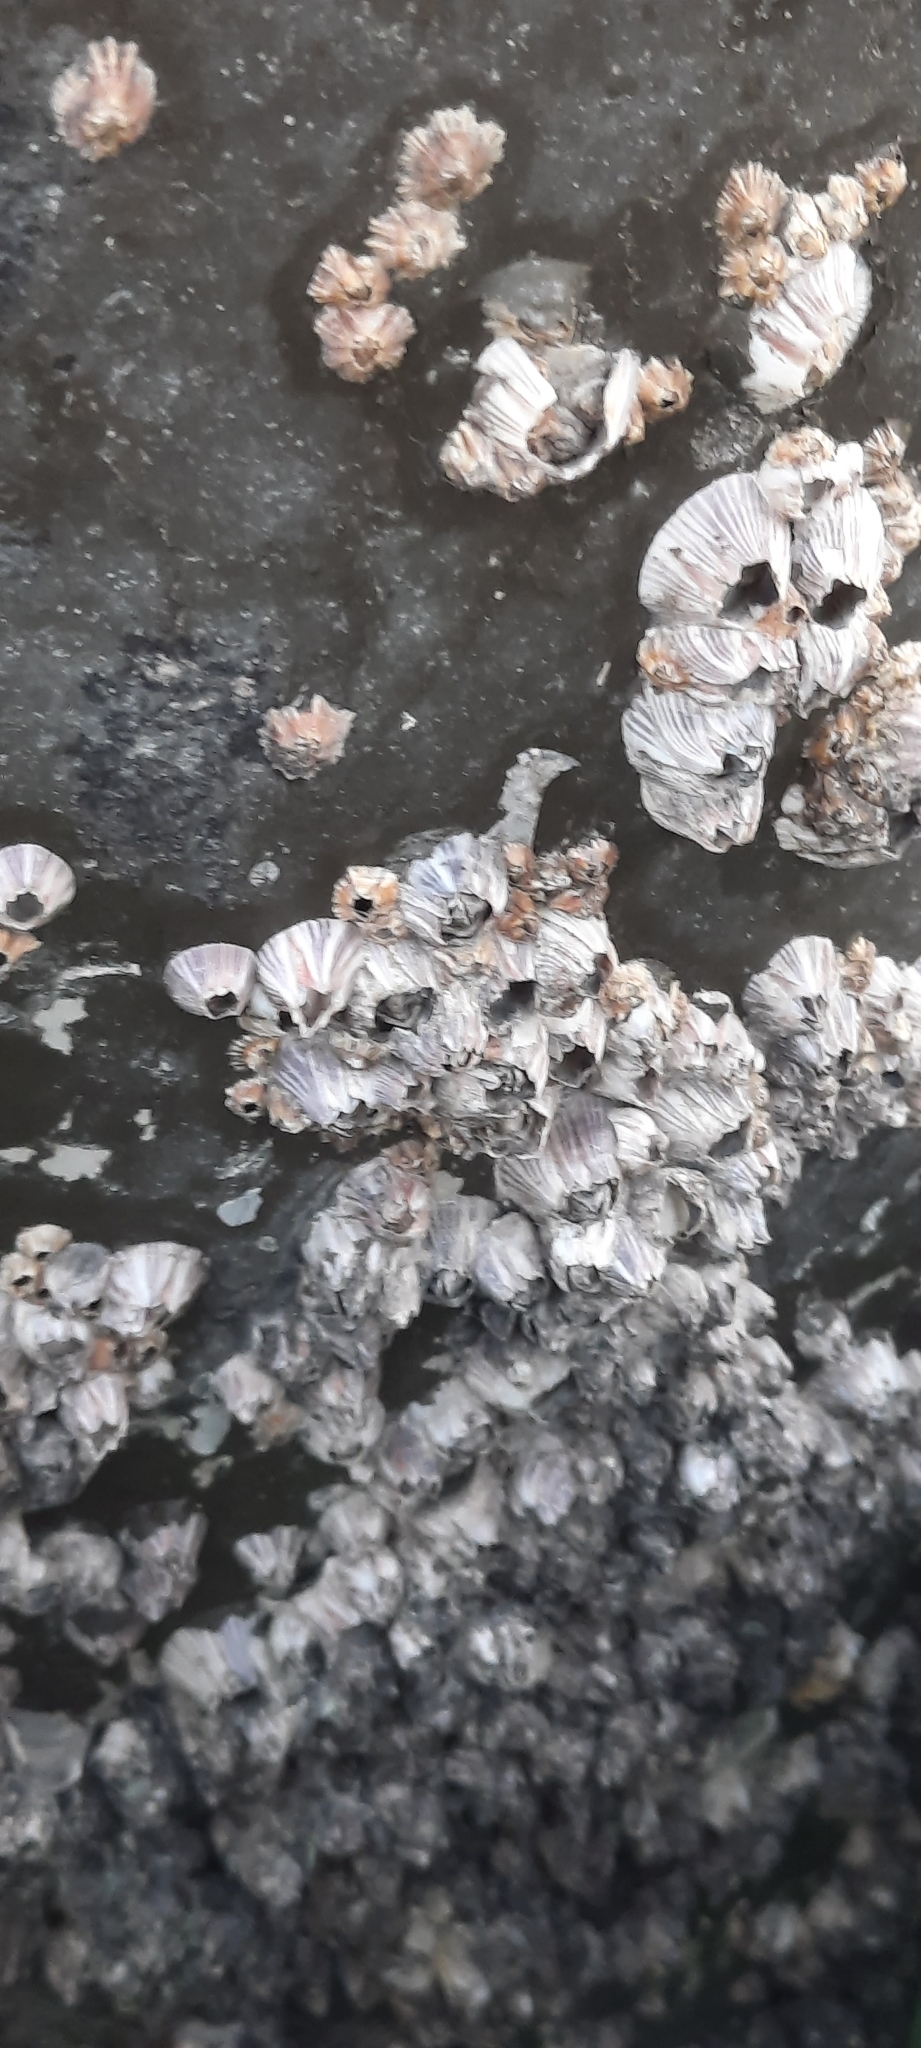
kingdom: Animalia
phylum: Arthropoda
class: Maxillopoda
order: Sessilia
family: Balanidae
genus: Amphibalanus
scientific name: Amphibalanus amphitrite
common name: Striped acorn barnacle
